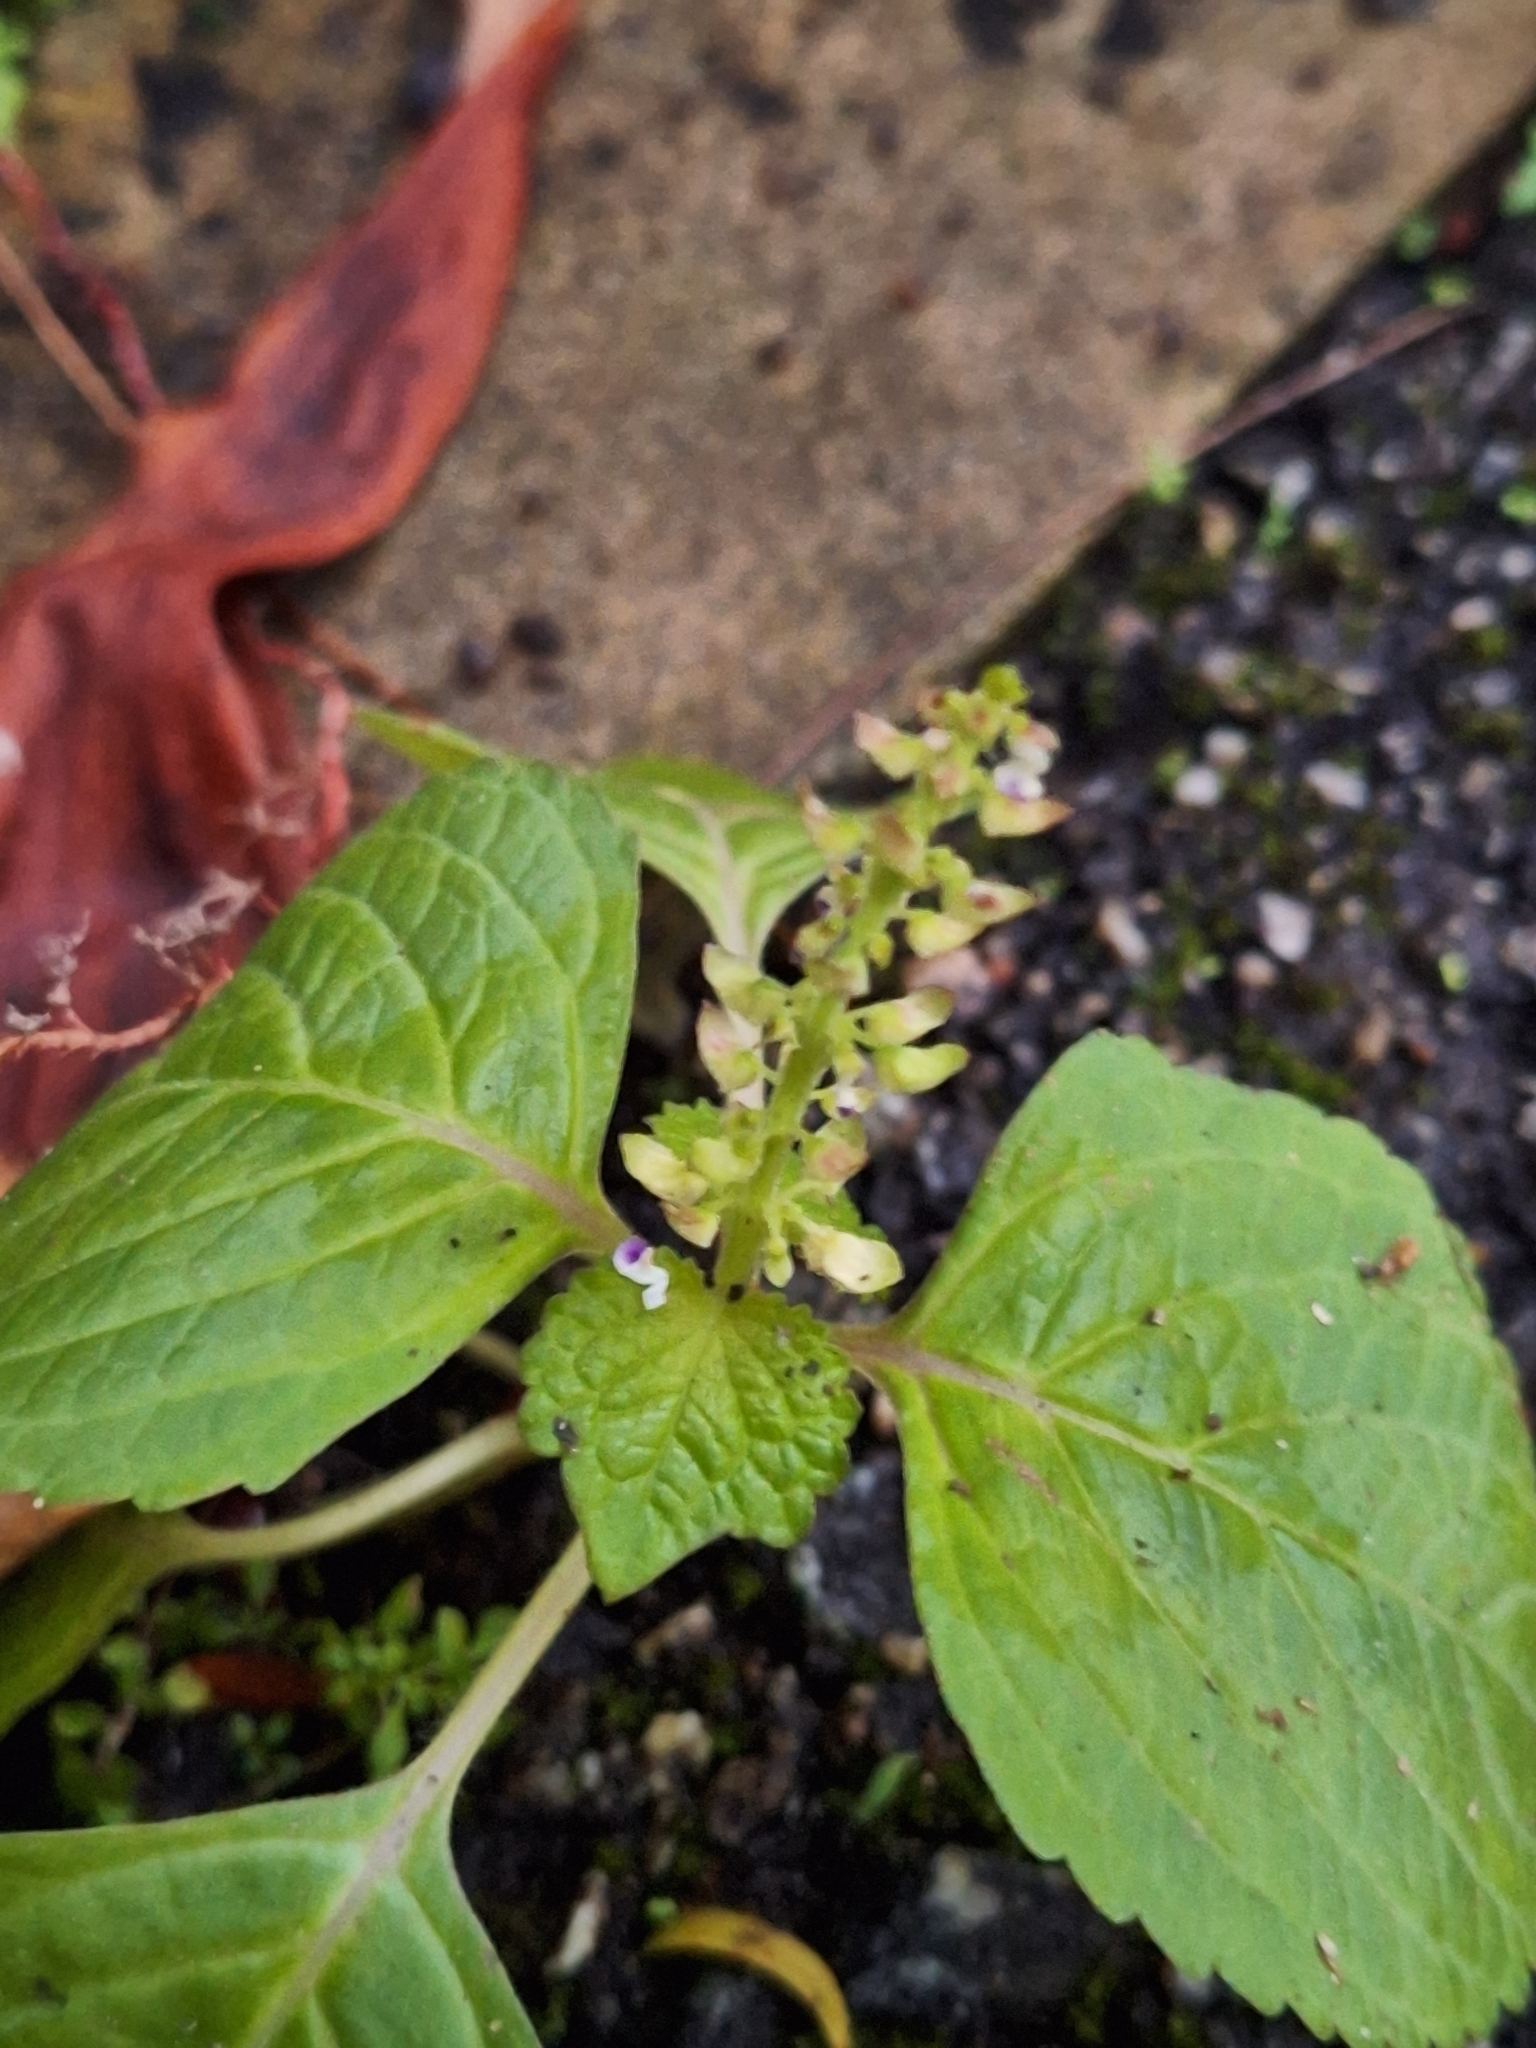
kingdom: Plantae
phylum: Tracheophyta
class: Magnoliopsida
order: Lamiales
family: Lamiaceae
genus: Coleus
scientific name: Coleus monostachyus
